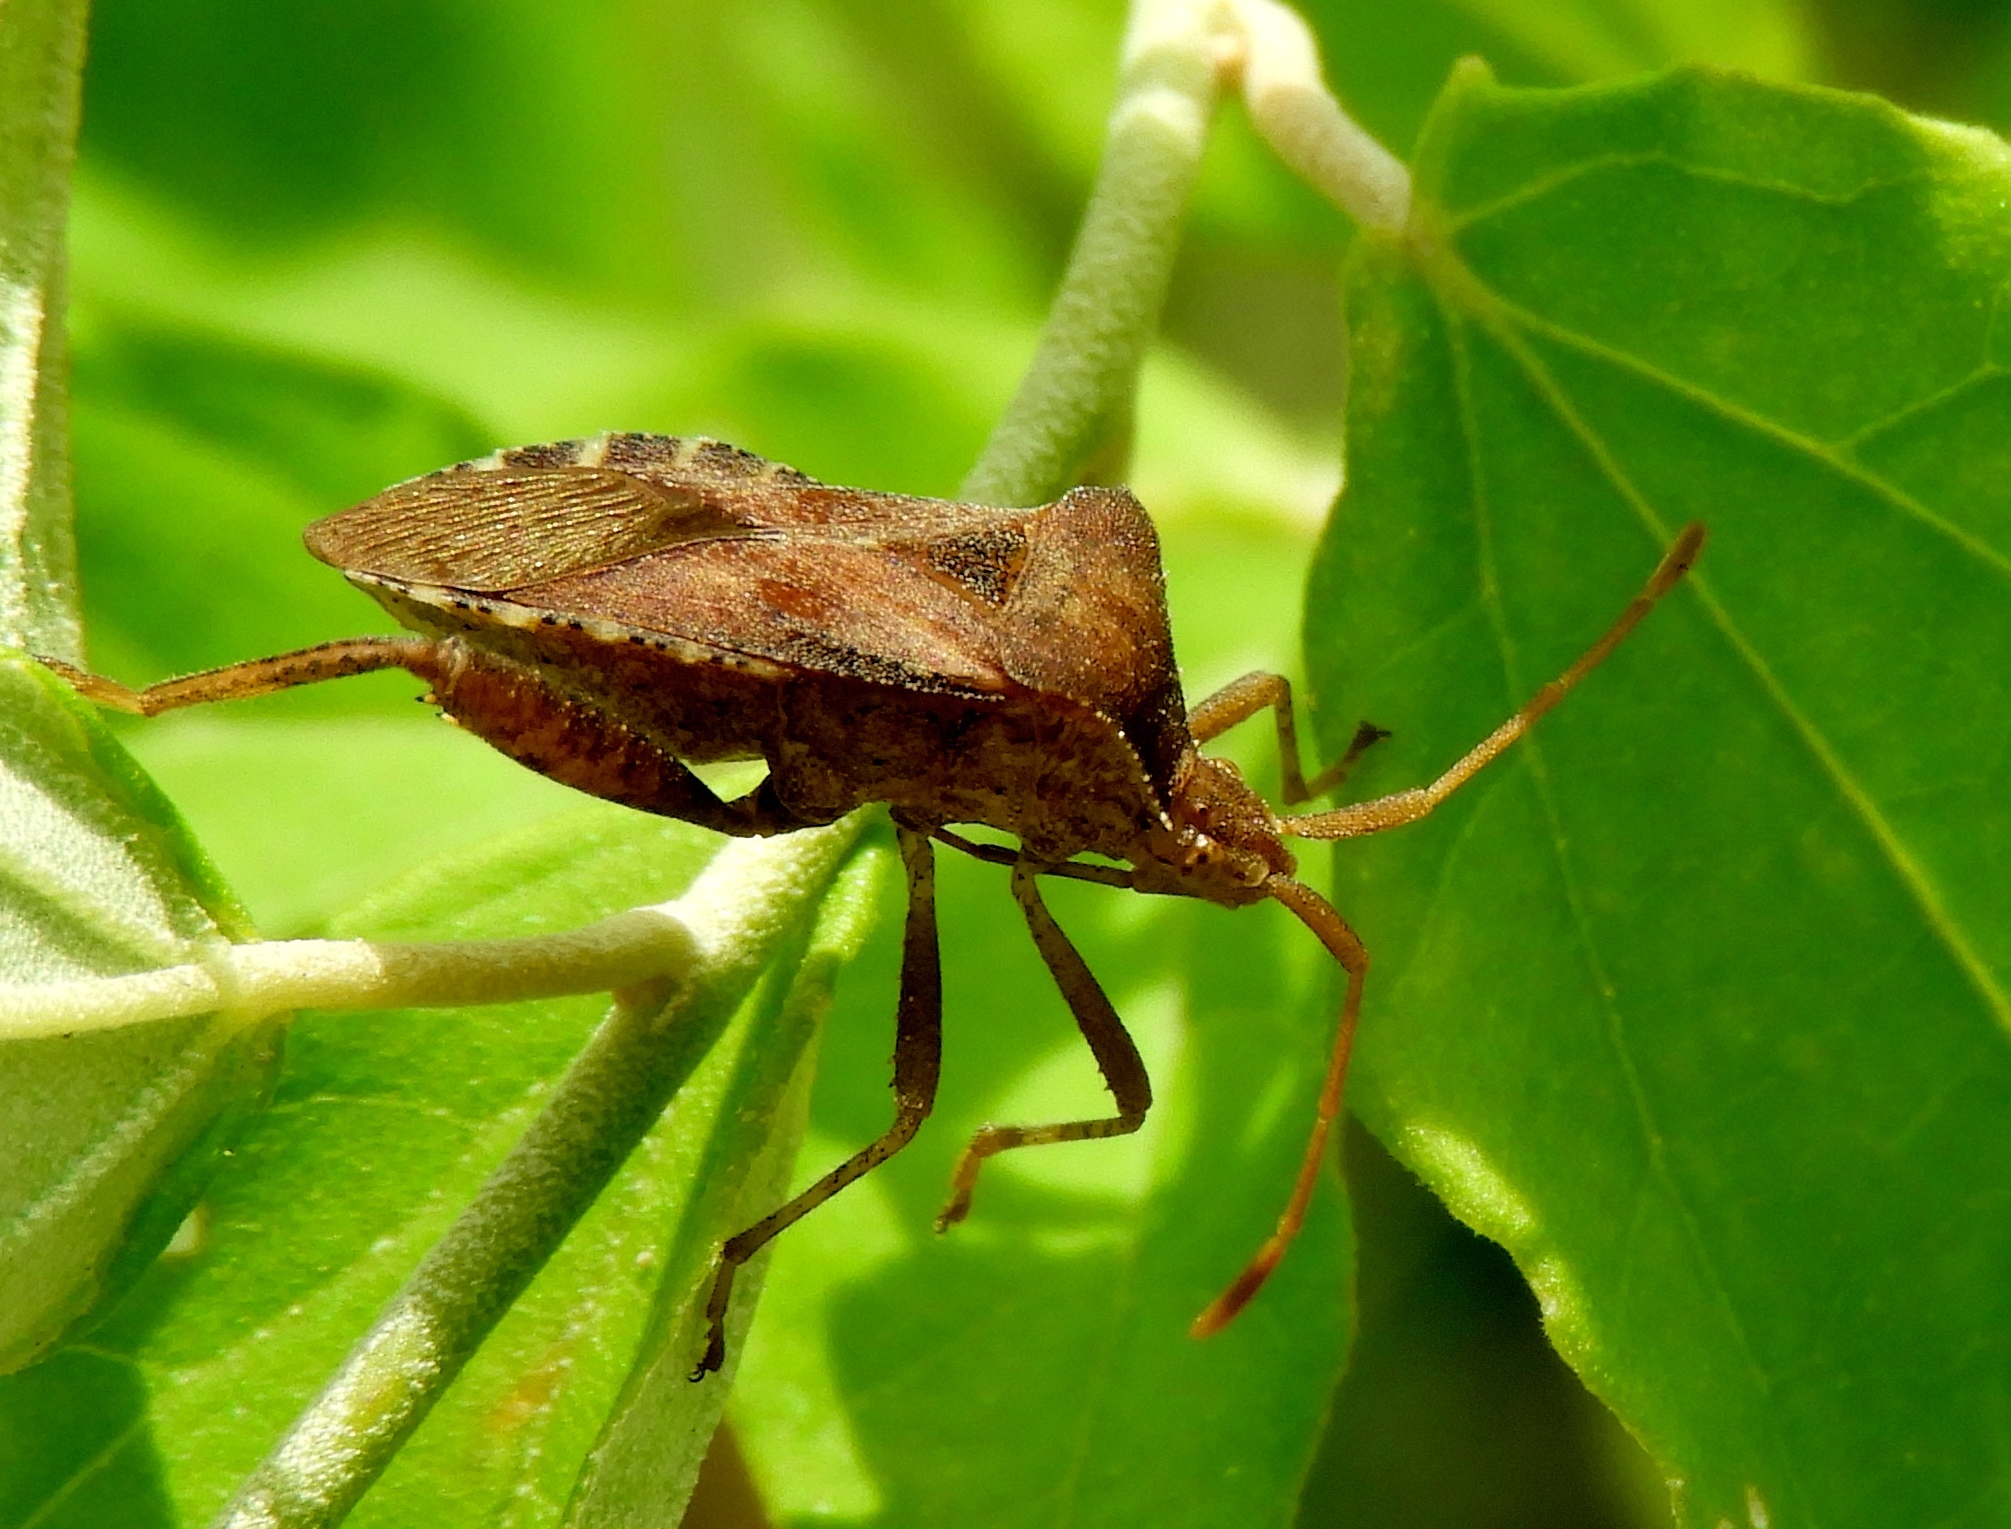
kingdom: Animalia
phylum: Arthropoda
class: Insecta
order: Hemiptera
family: Coreidae
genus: Mamurius
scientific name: Mamurius mopsus
